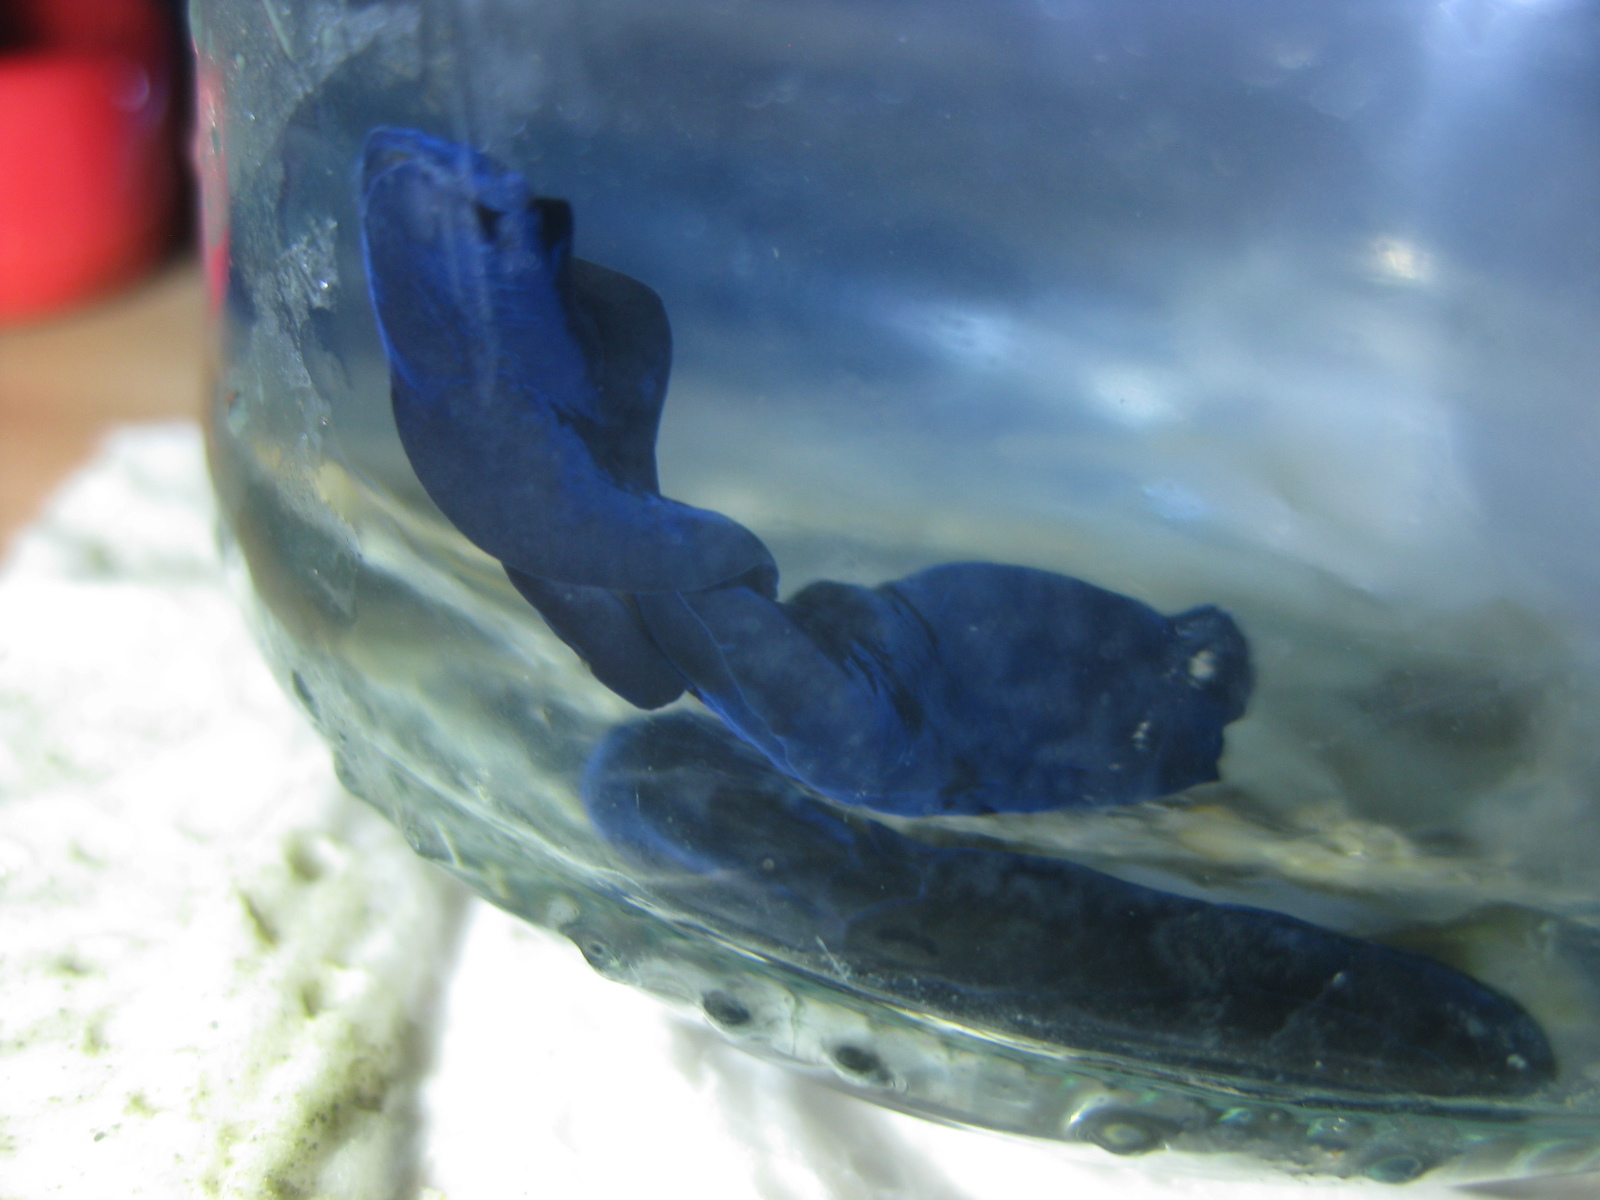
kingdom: Animalia
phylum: Mollusca
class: Gastropoda
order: Cephalaspidea
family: Aglajidae
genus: Melanochlamys
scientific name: Melanochlamys cylindrica
